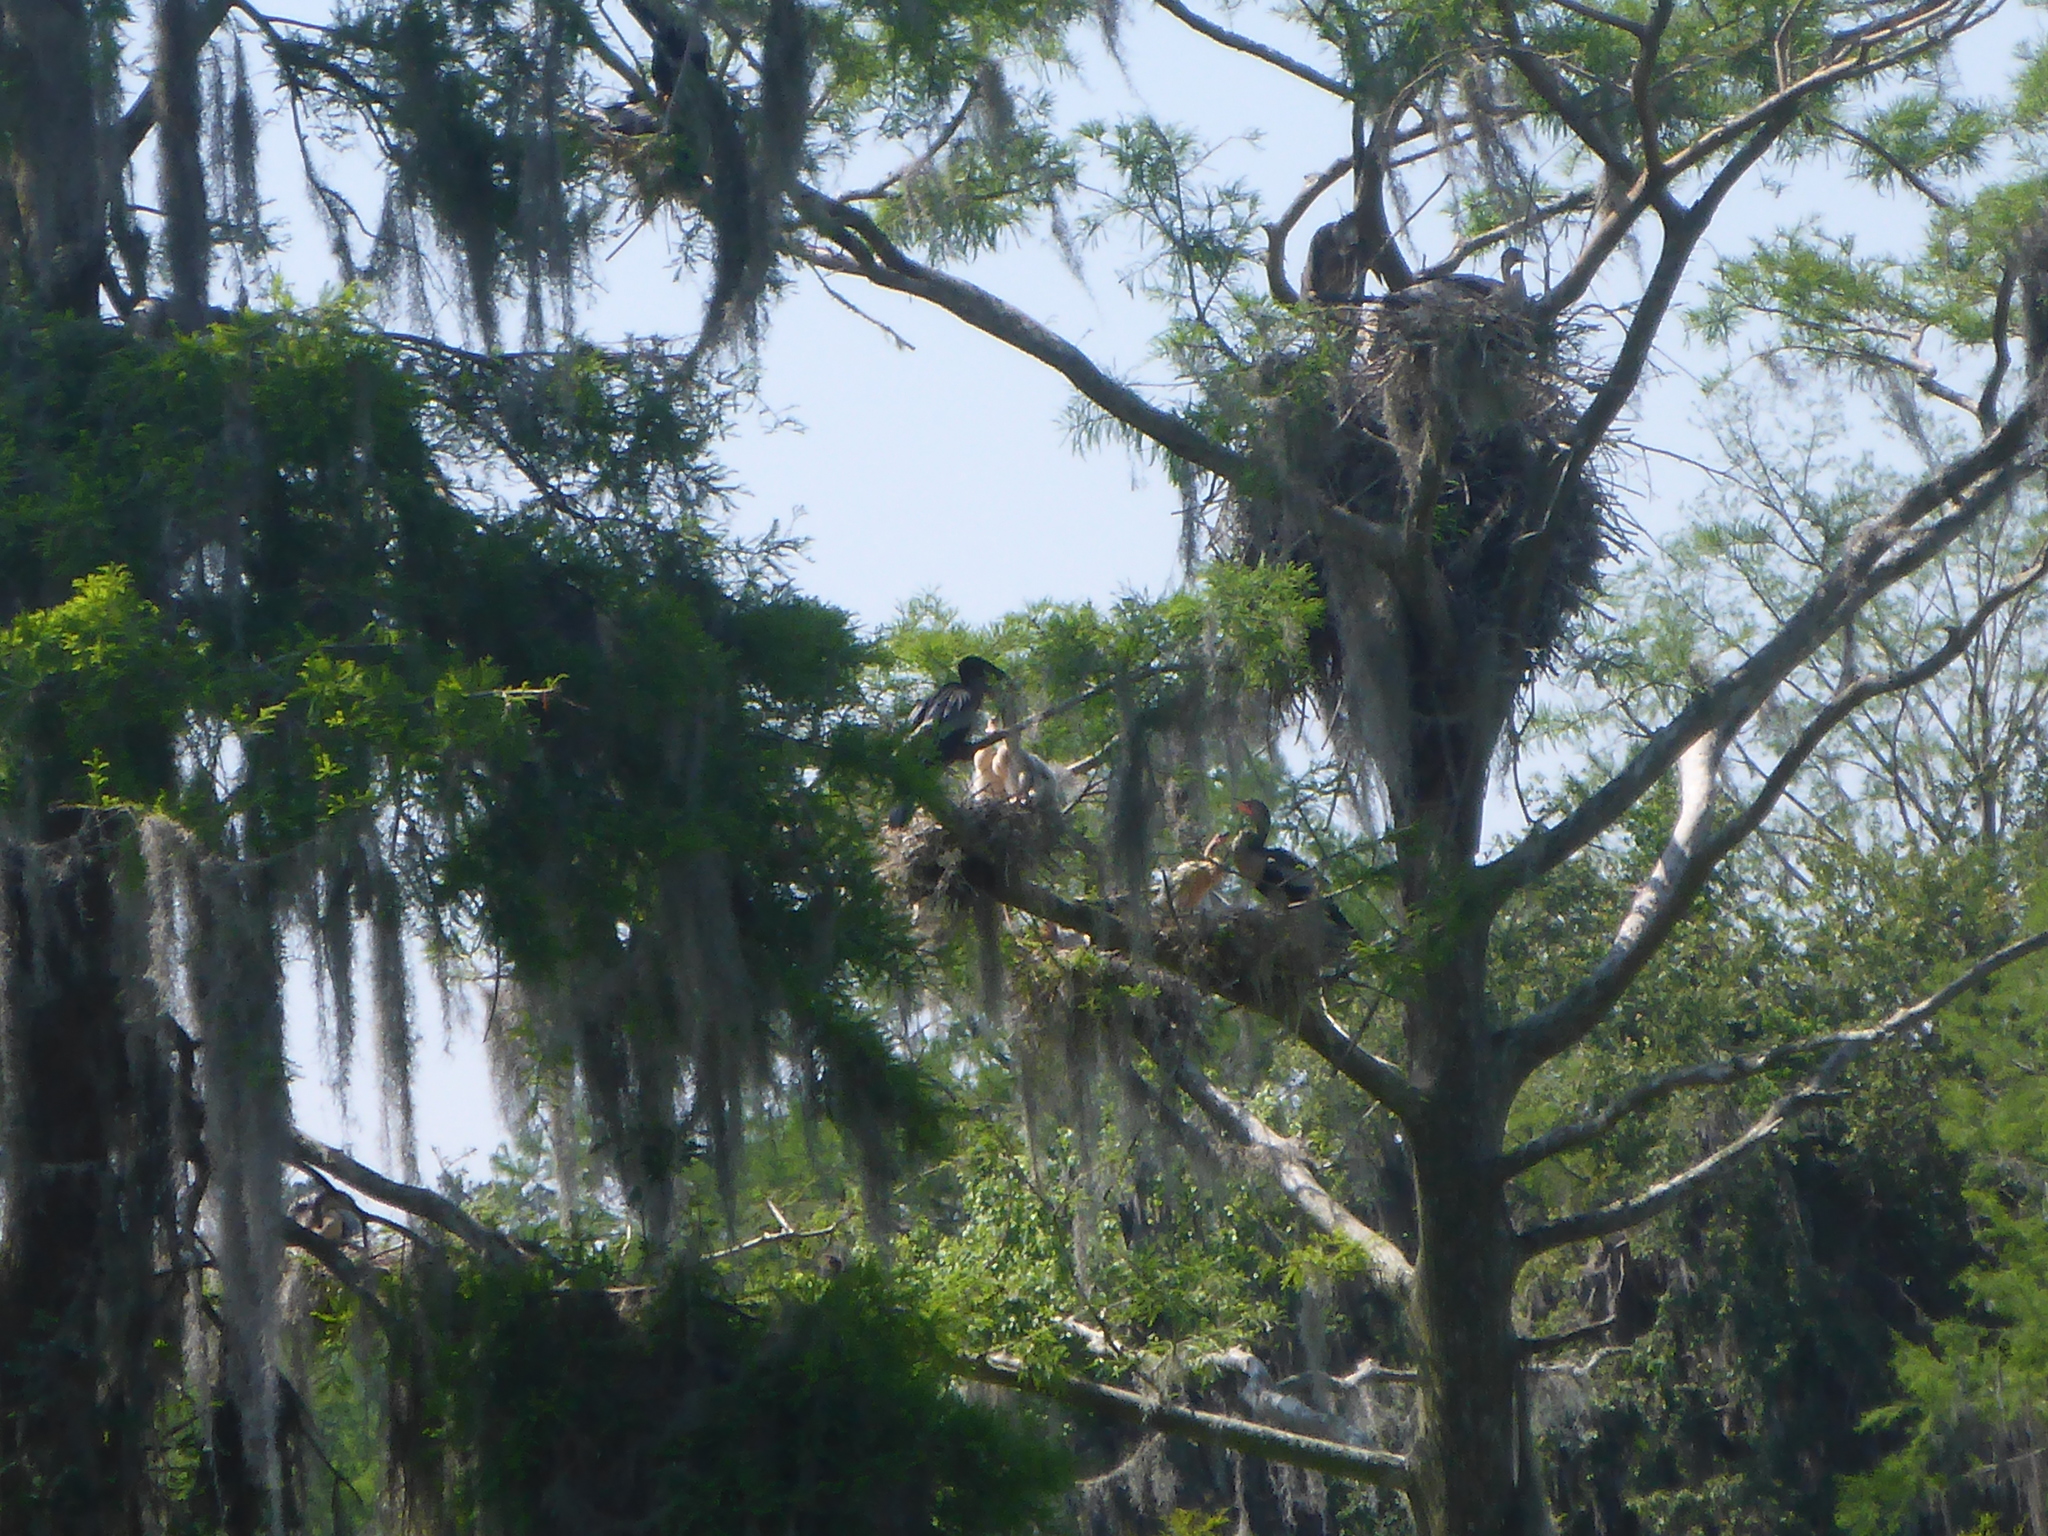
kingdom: Animalia
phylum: Chordata
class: Aves
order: Suliformes
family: Anhingidae
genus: Anhinga
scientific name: Anhinga anhinga
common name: Anhinga
